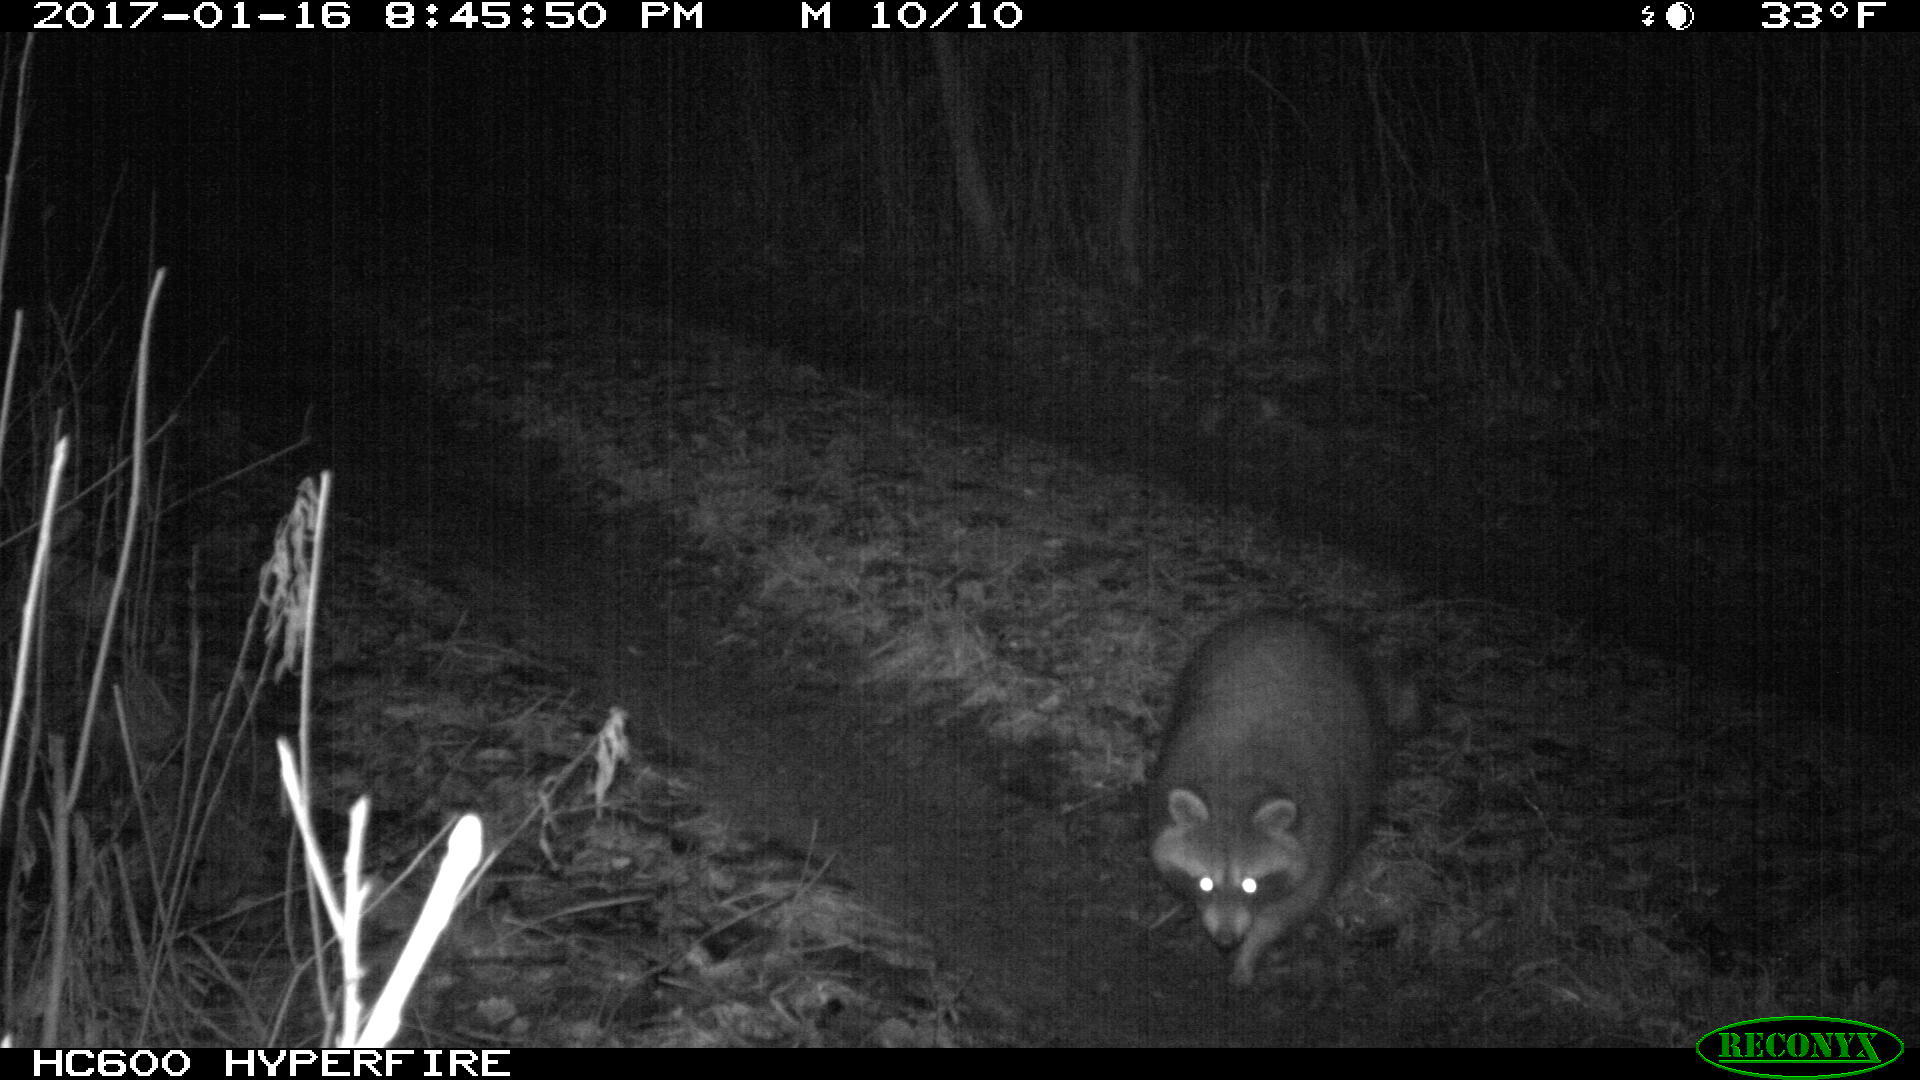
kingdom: Animalia
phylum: Chordata
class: Mammalia
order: Carnivora
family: Procyonidae
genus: Procyon
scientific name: Procyon lotor
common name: Raccoon
